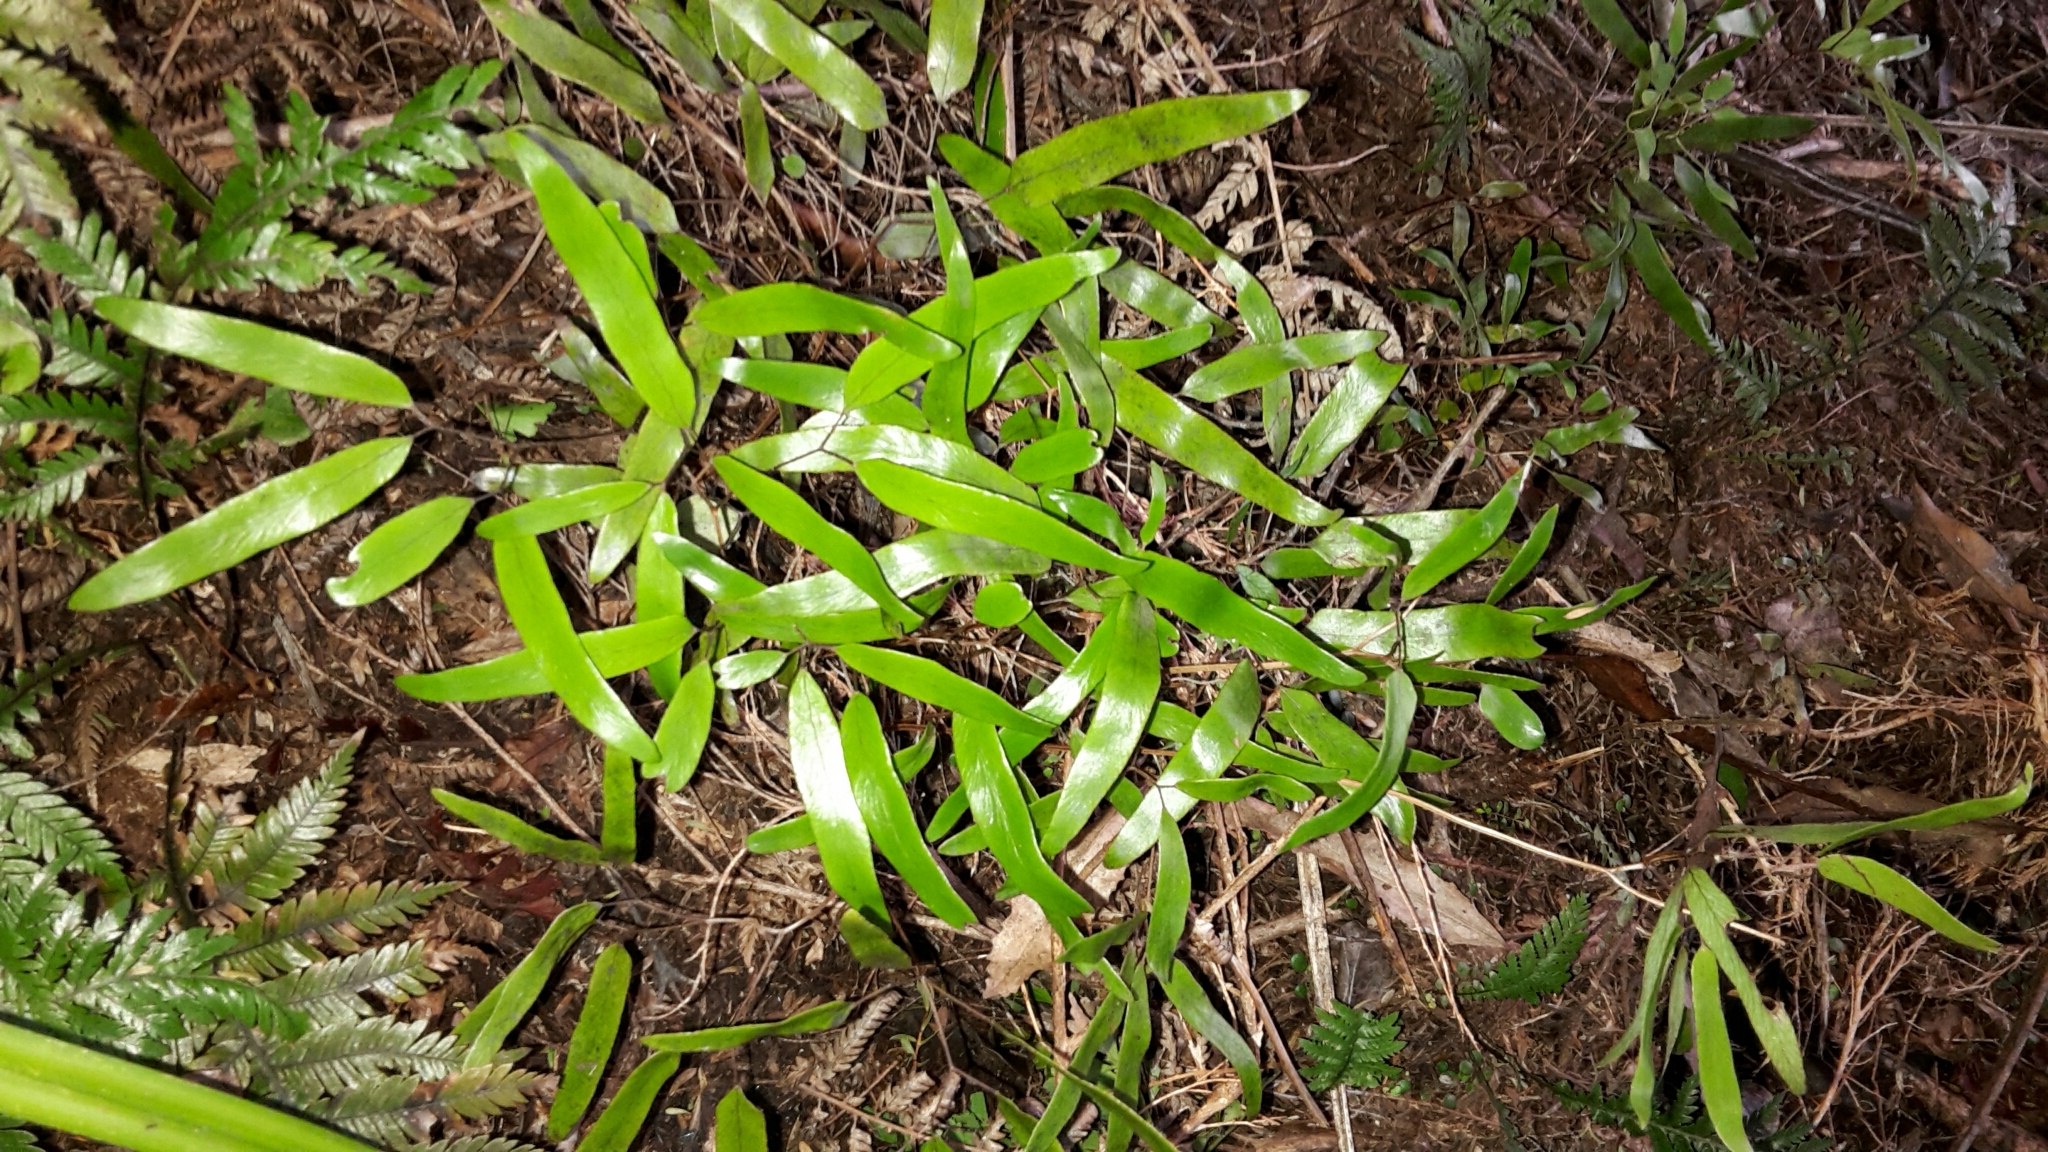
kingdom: Plantae
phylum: Tracheophyta
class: Polypodiopsida
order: Schizaeales
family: Lygodiaceae
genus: Lygodium
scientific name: Lygodium articulatum
